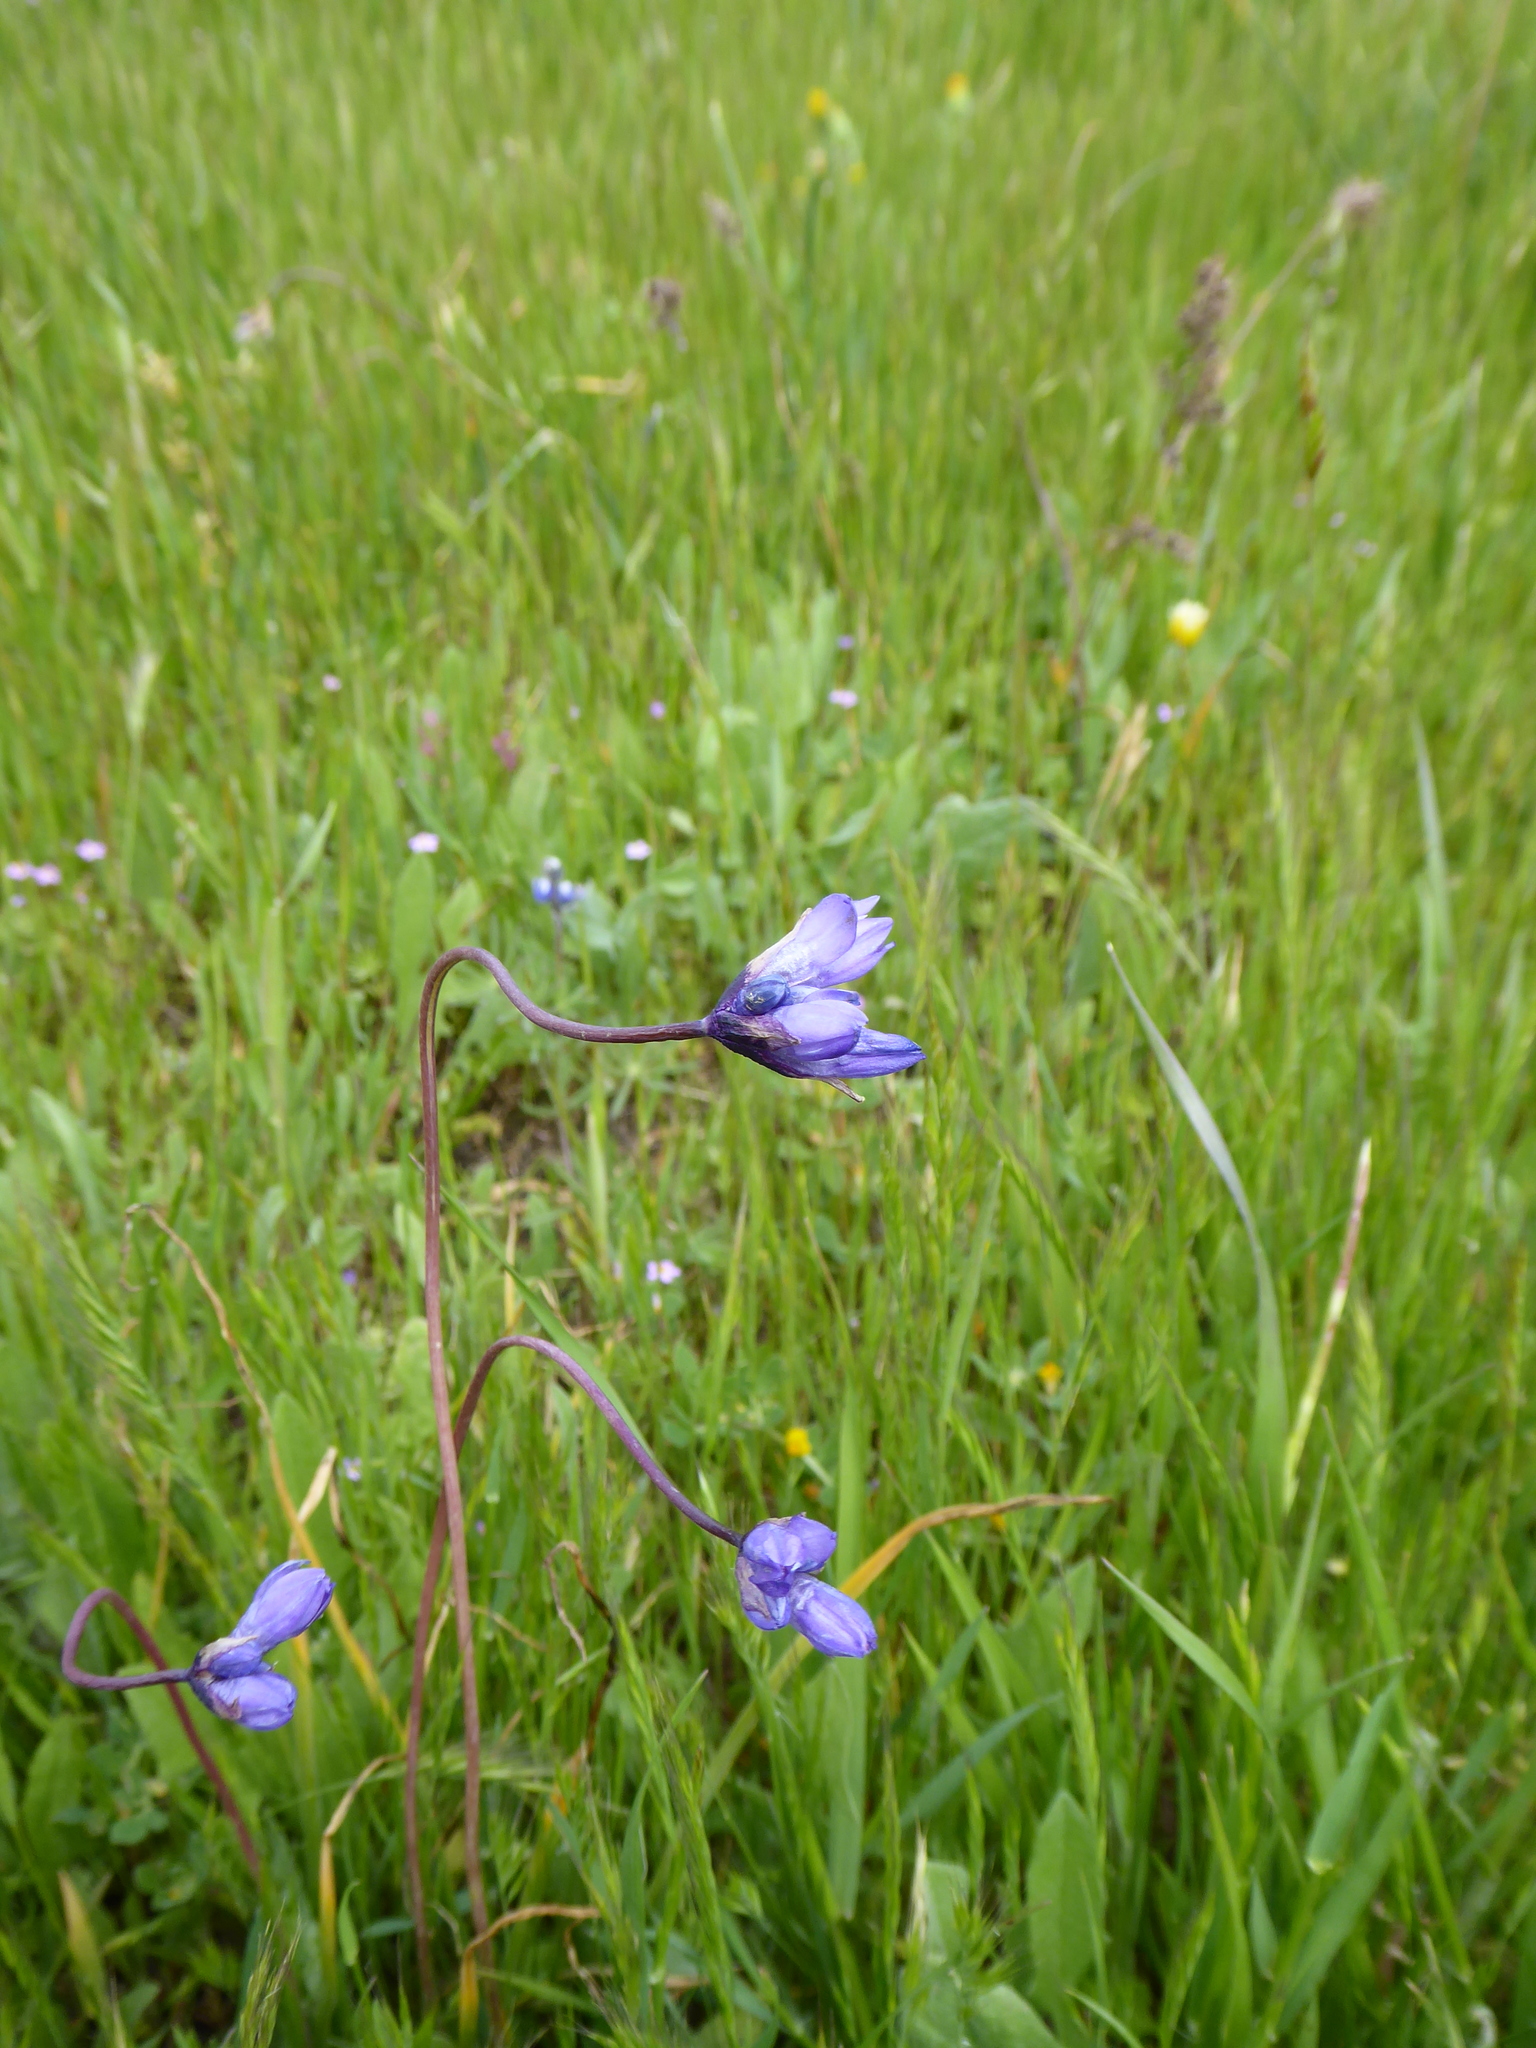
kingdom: Plantae
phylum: Tracheophyta
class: Liliopsida
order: Asparagales
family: Asparagaceae
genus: Dipterostemon
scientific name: Dipterostemon capitatus
